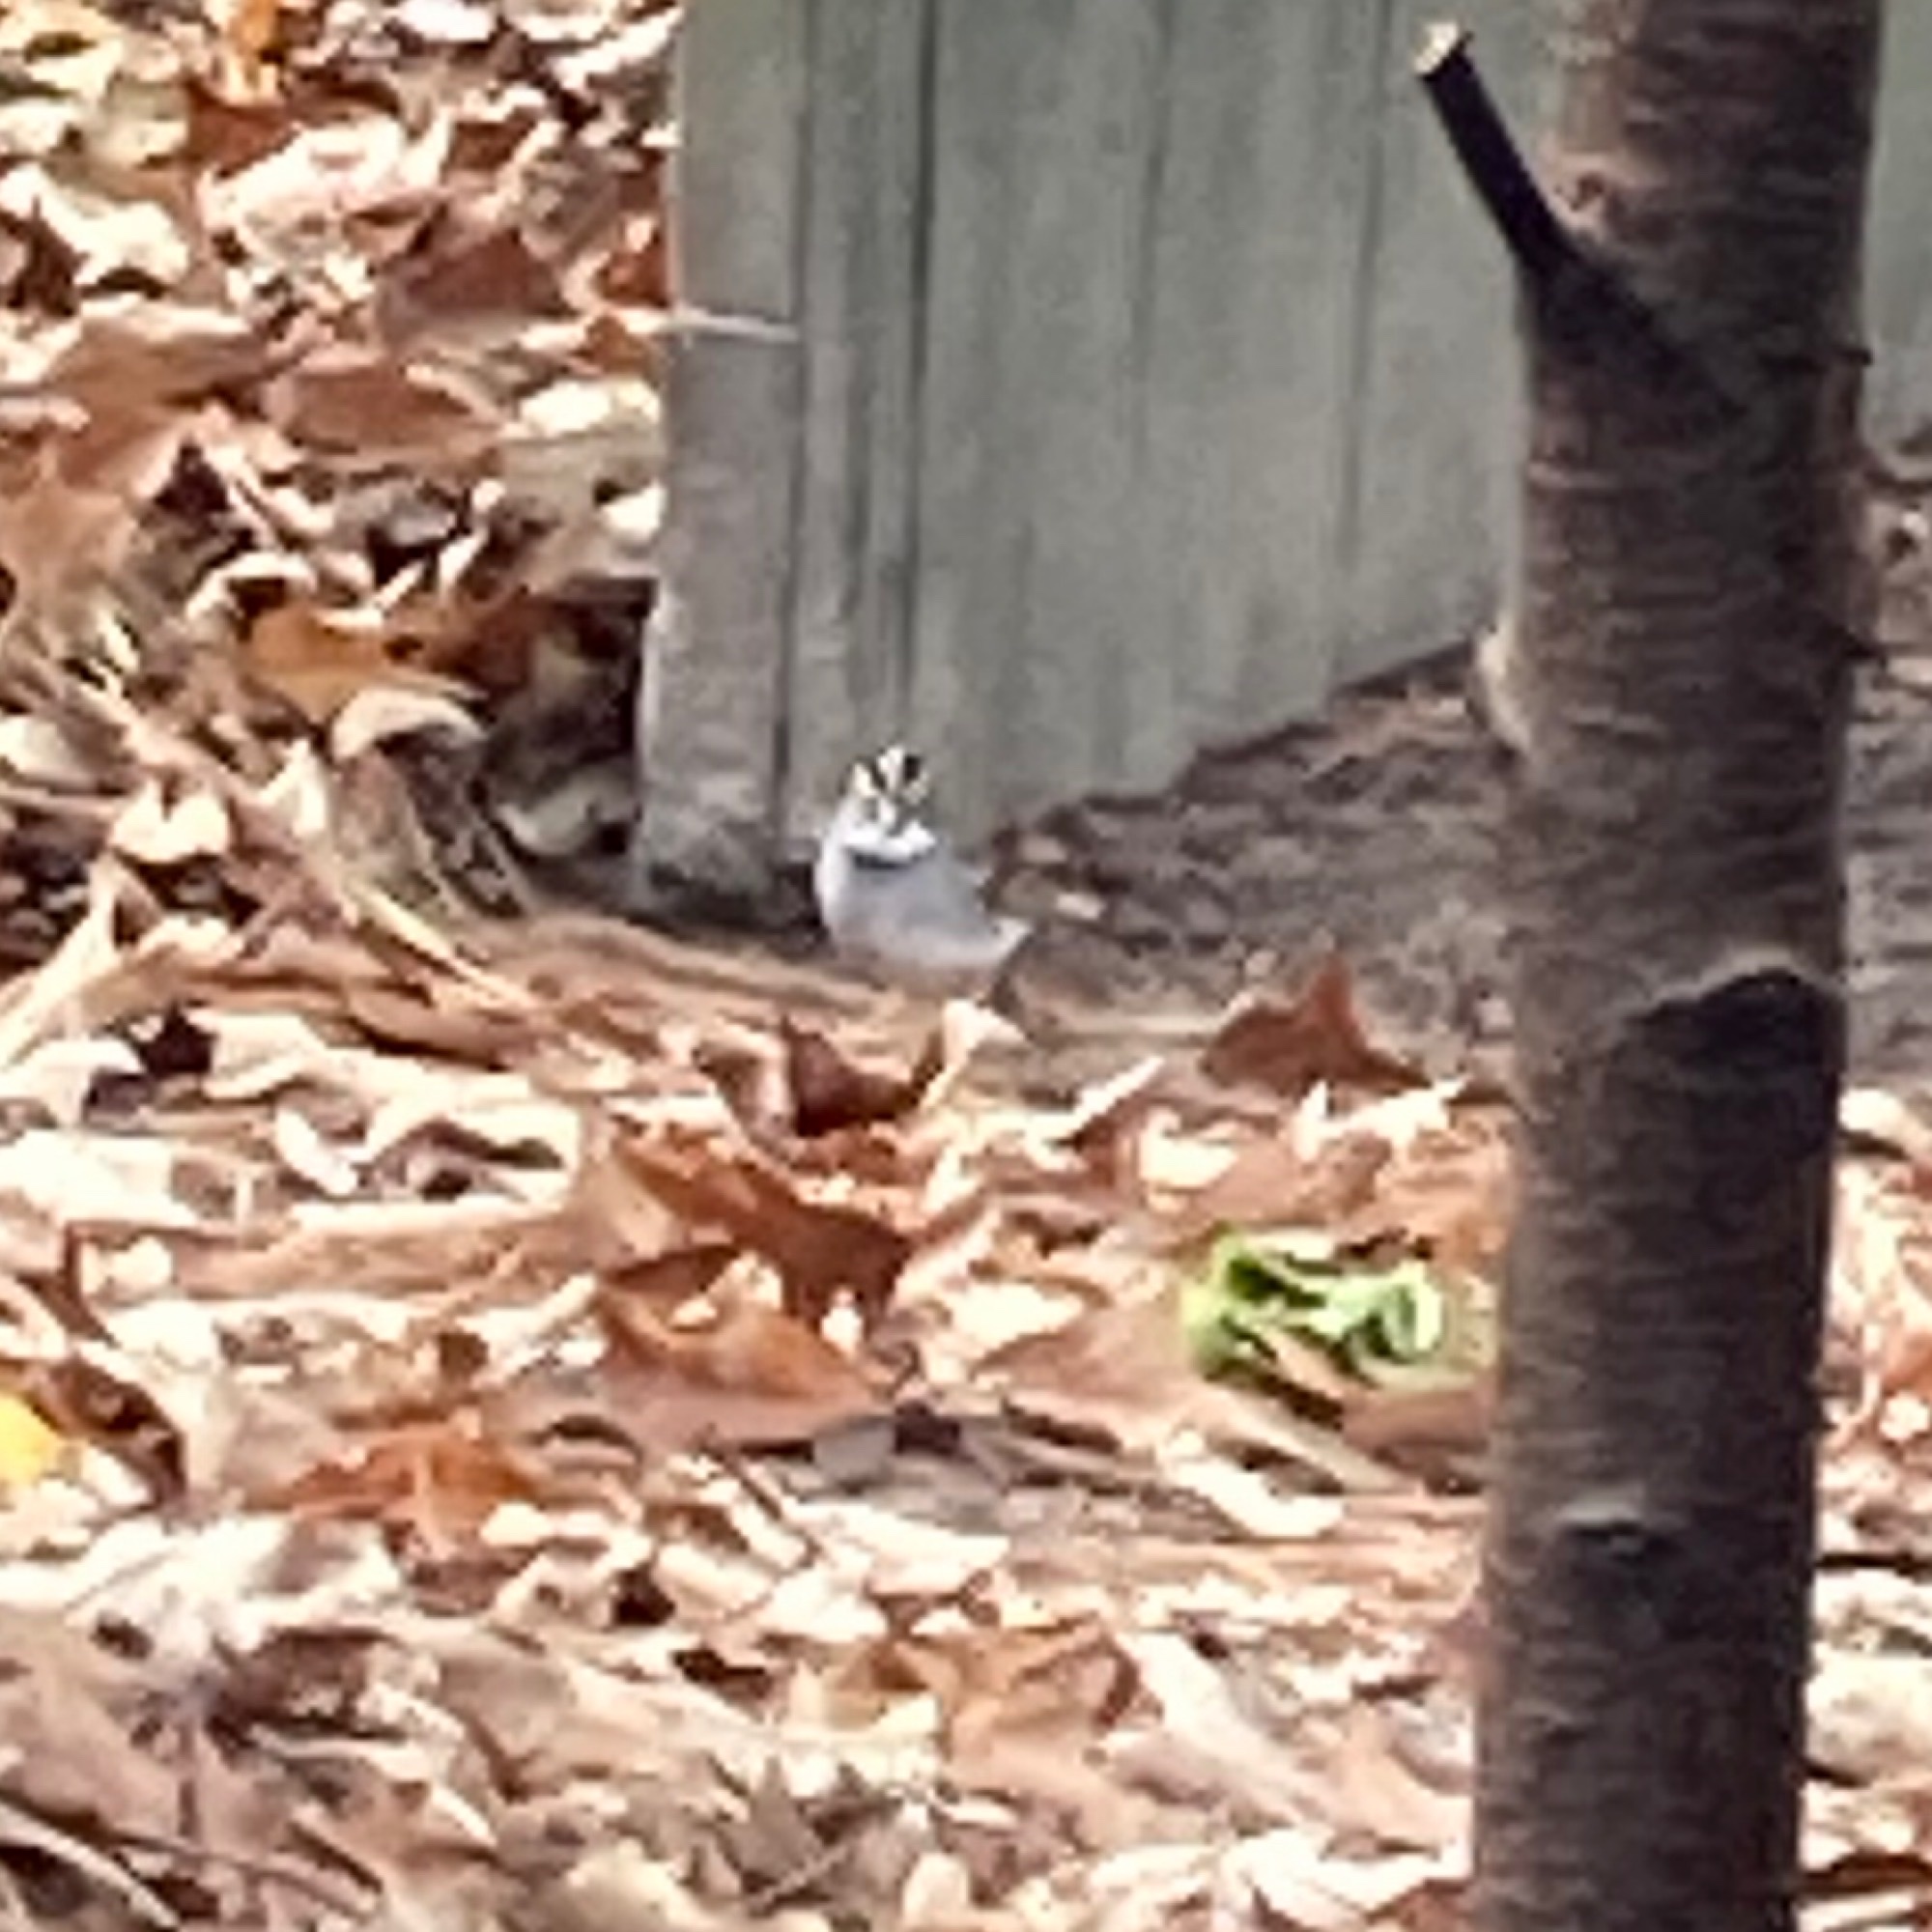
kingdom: Animalia
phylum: Chordata
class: Aves
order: Passeriformes
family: Passerellidae
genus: Zonotrichia
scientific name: Zonotrichia albicollis
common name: White-throated sparrow
